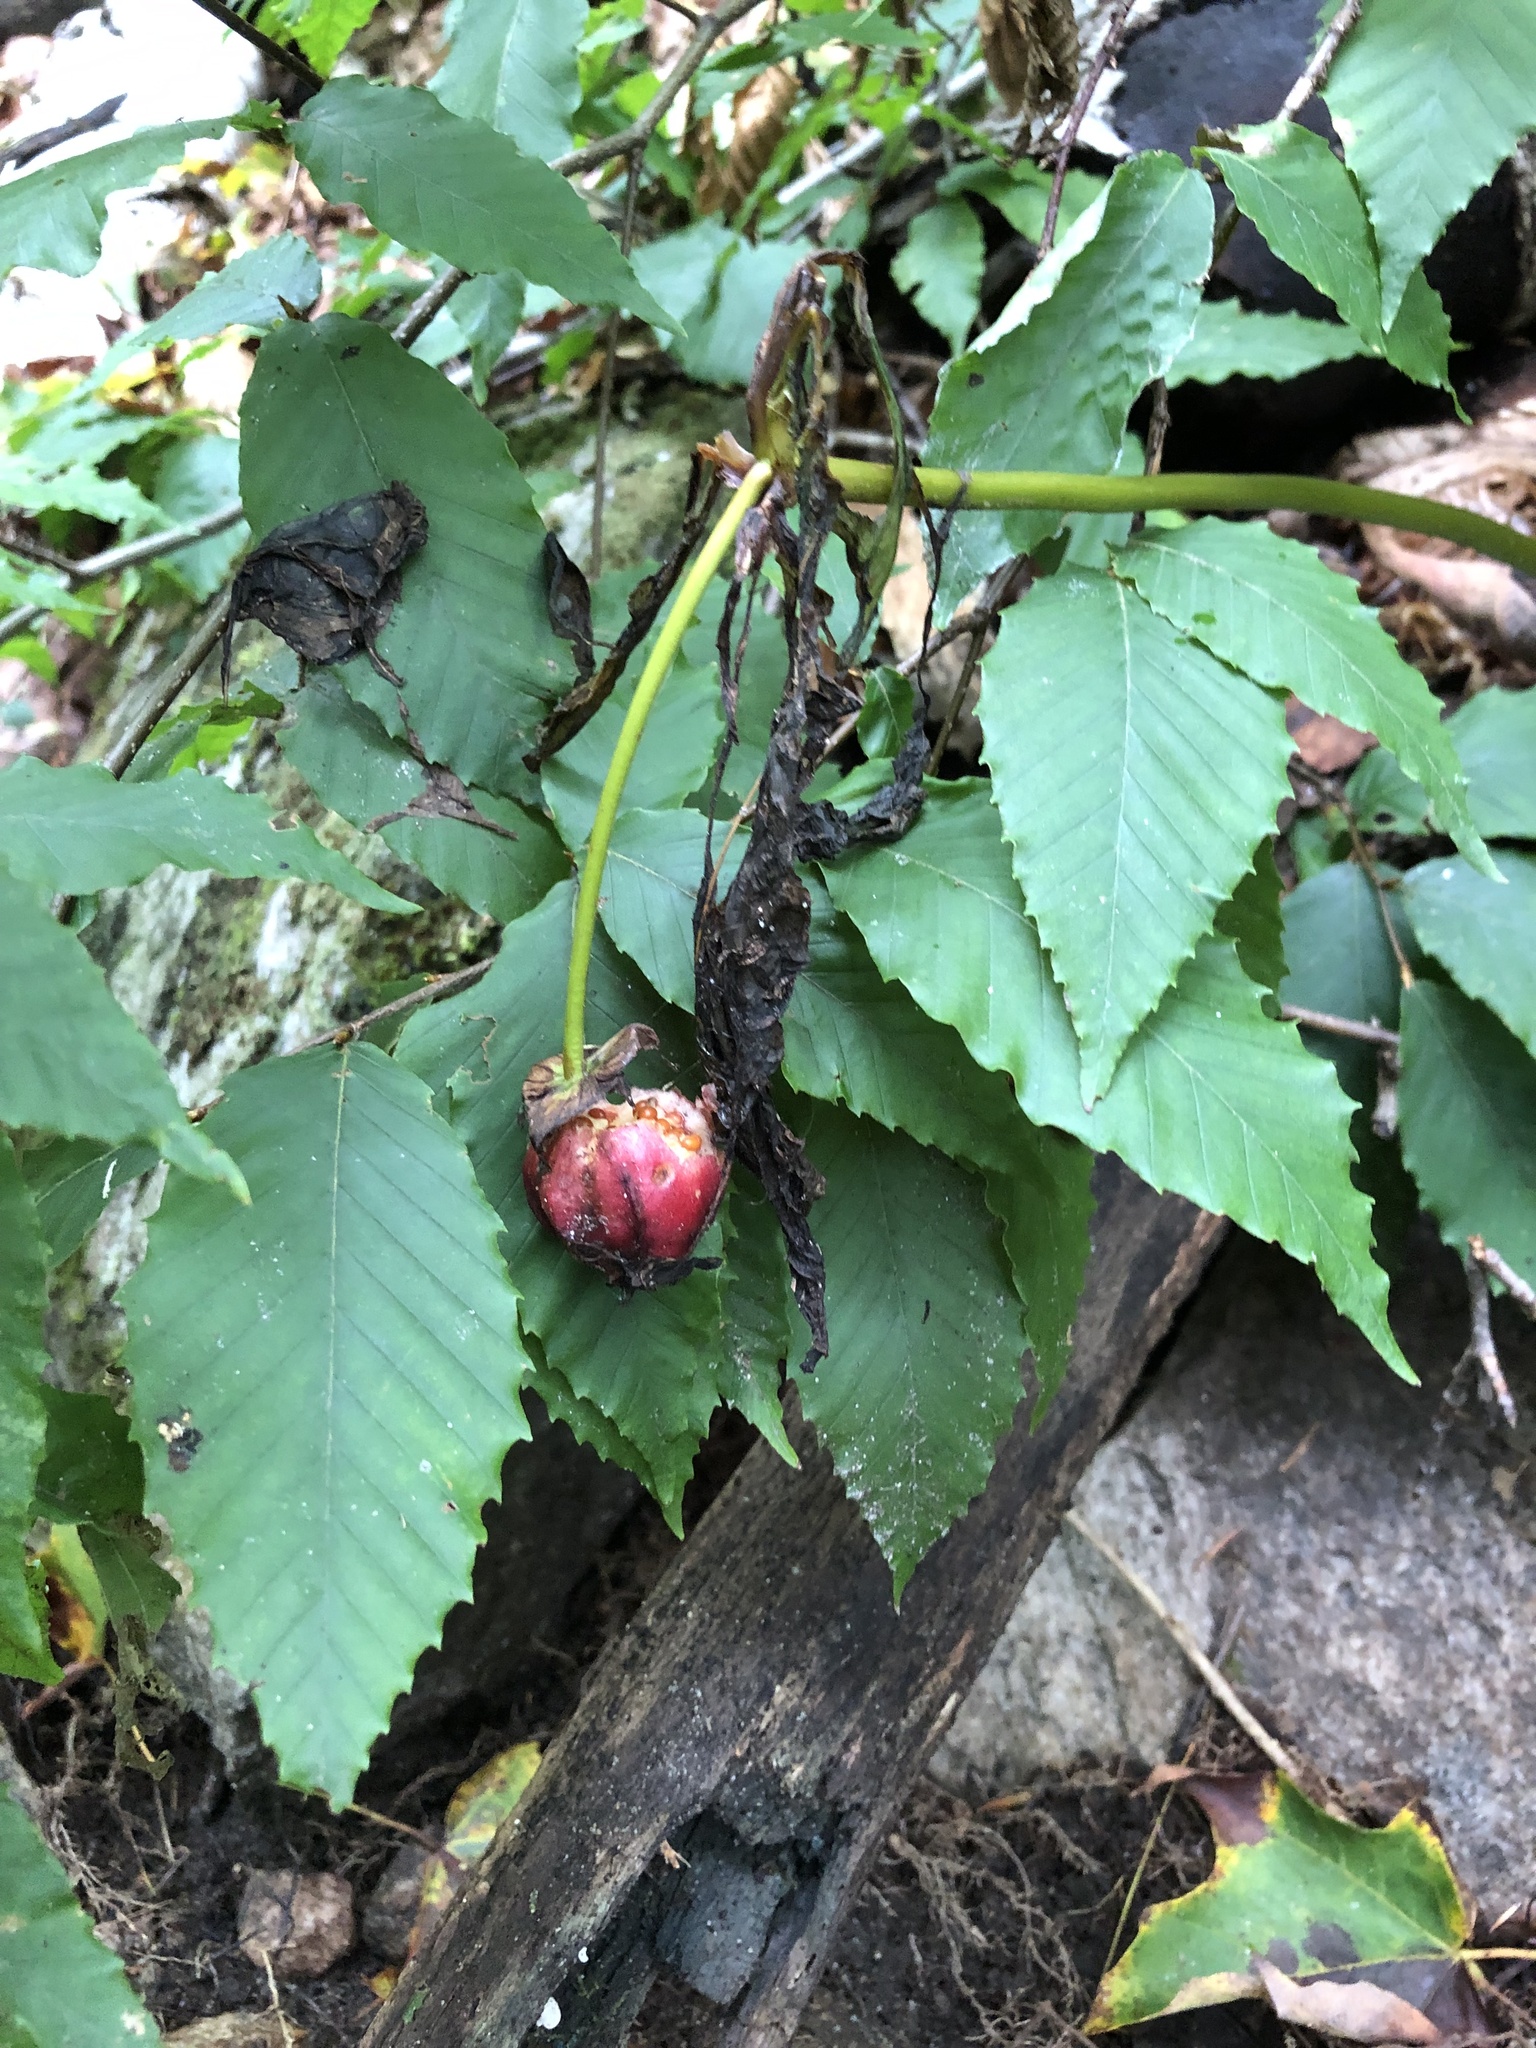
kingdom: Plantae
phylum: Tracheophyta
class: Liliopsida
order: Liliales
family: Melanthiaceae
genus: Trillium
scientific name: Trillium erectum
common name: Purple trillium
